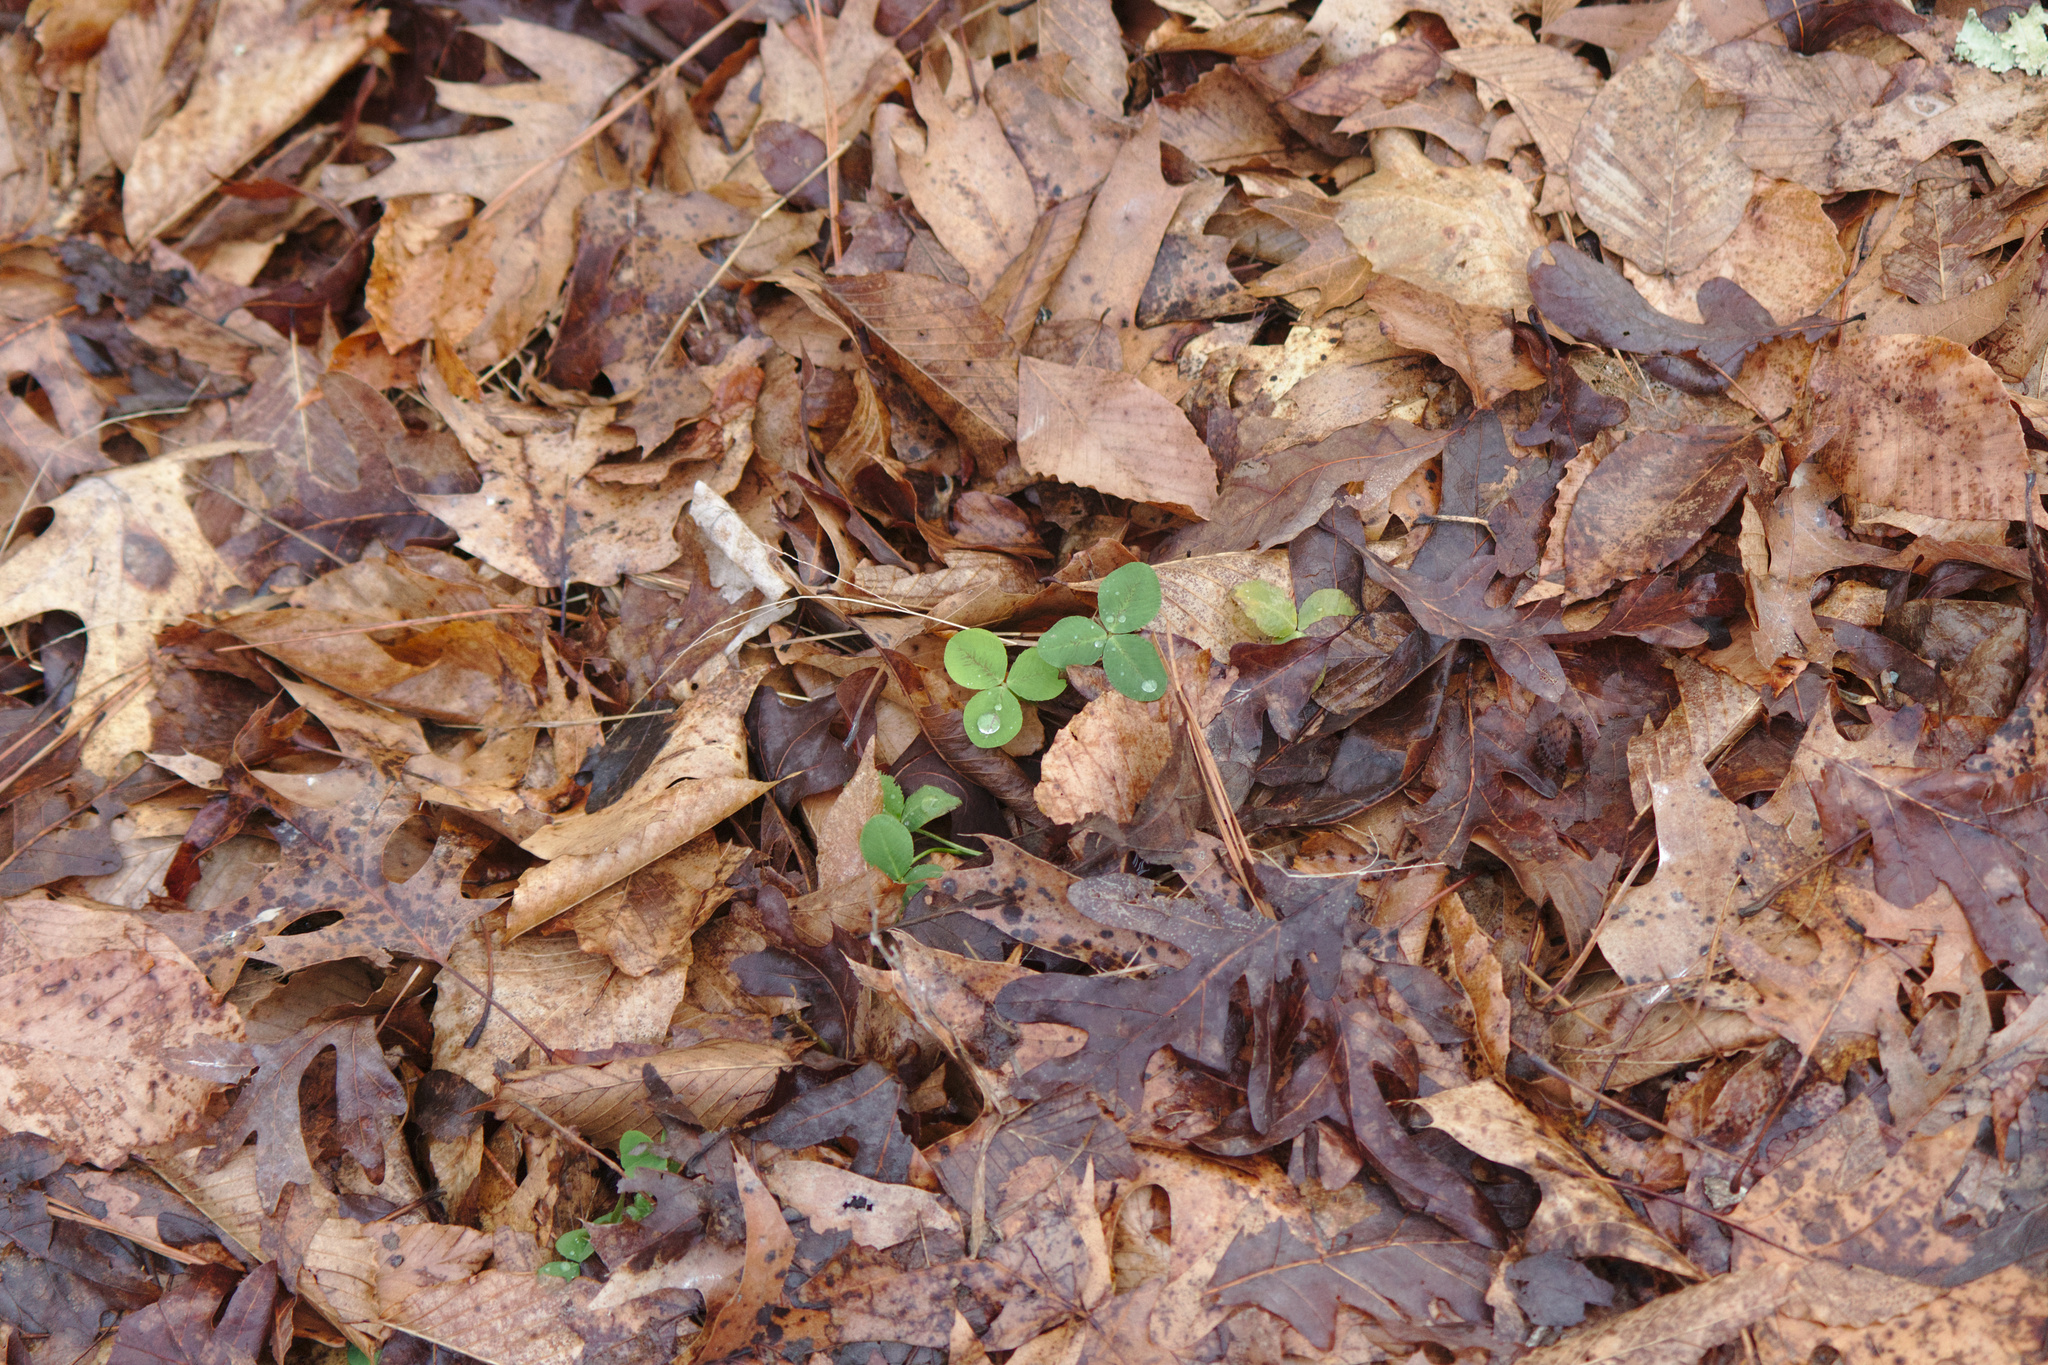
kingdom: Plantae
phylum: Tracheophyta
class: Magnoliopsida
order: Fabales
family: Fabaceae
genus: Trifolium
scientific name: Trifolium repens
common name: White clover
